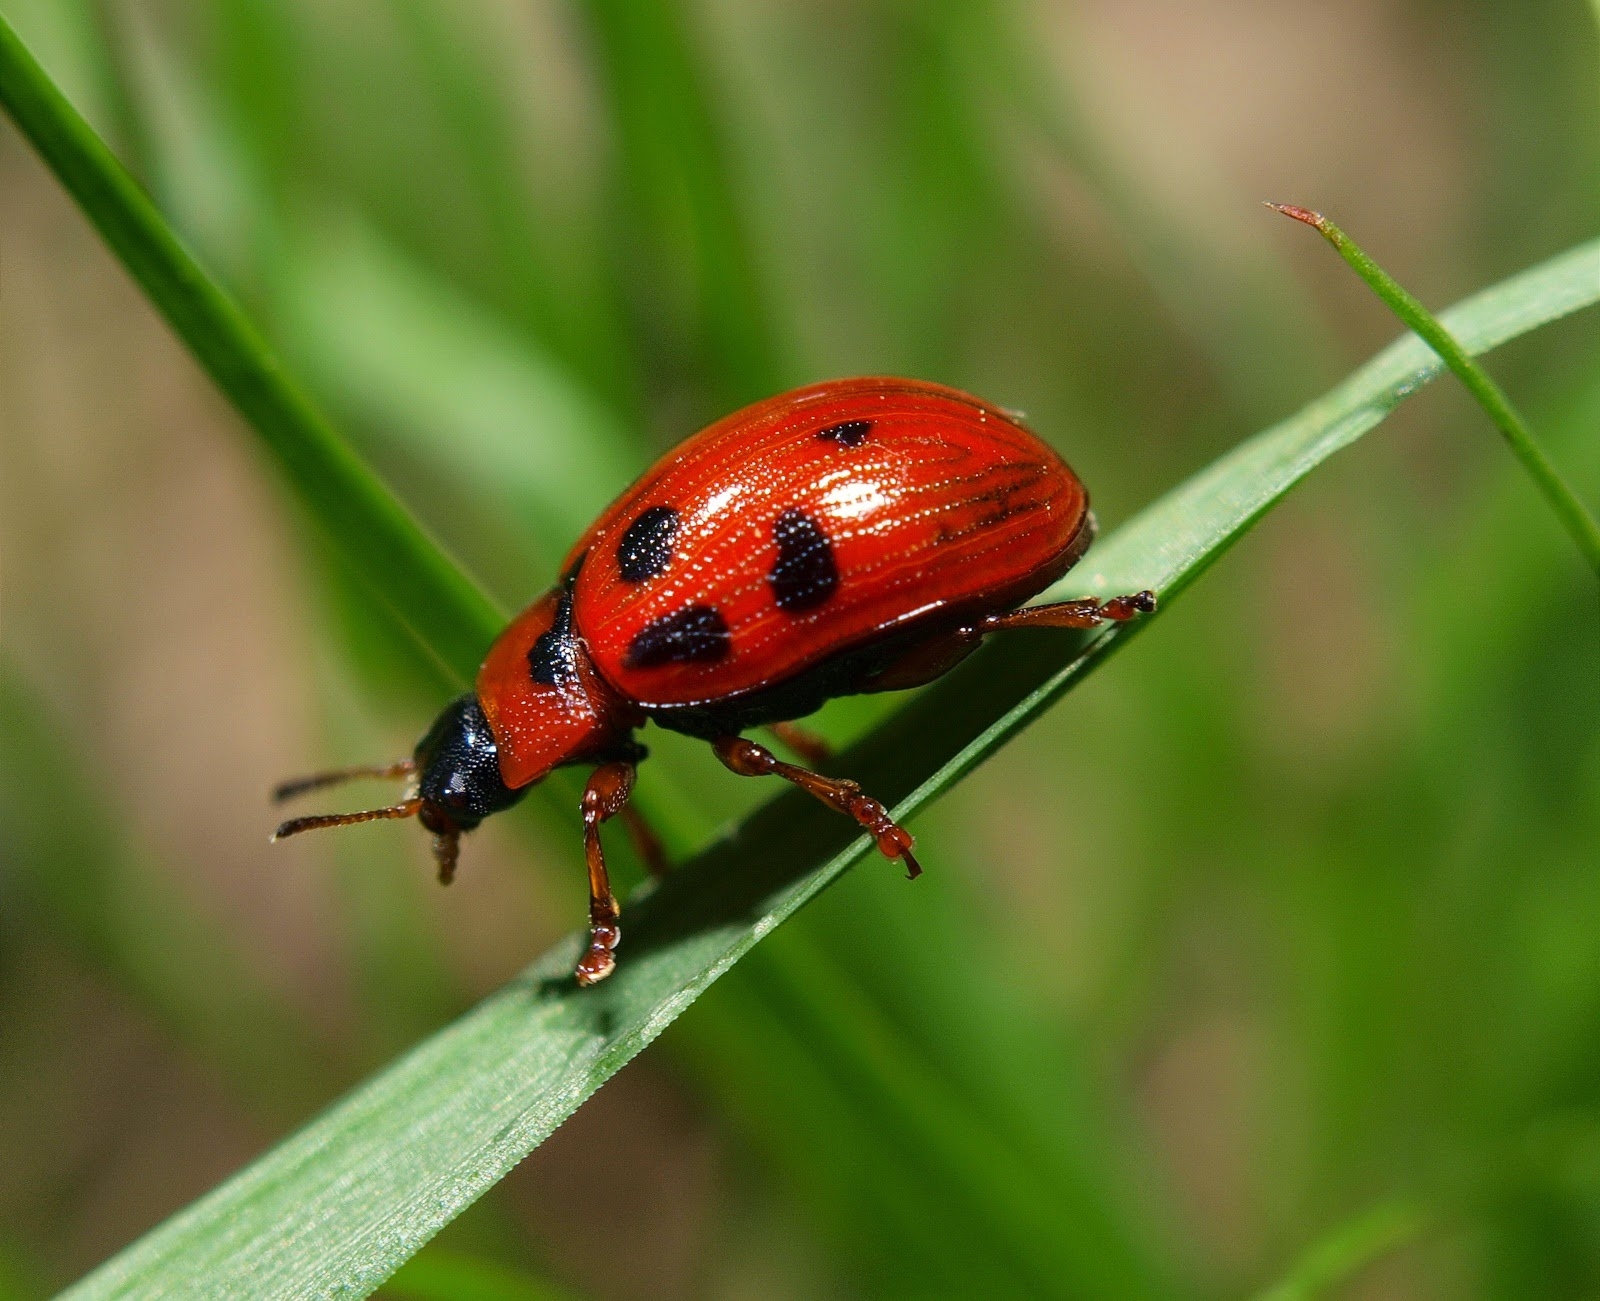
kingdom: Animalia
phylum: Arthropoda
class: Insecta
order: Coleoptera
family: Chrysomelidae
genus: Gonioctena
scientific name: Gonioctena decemnotata
